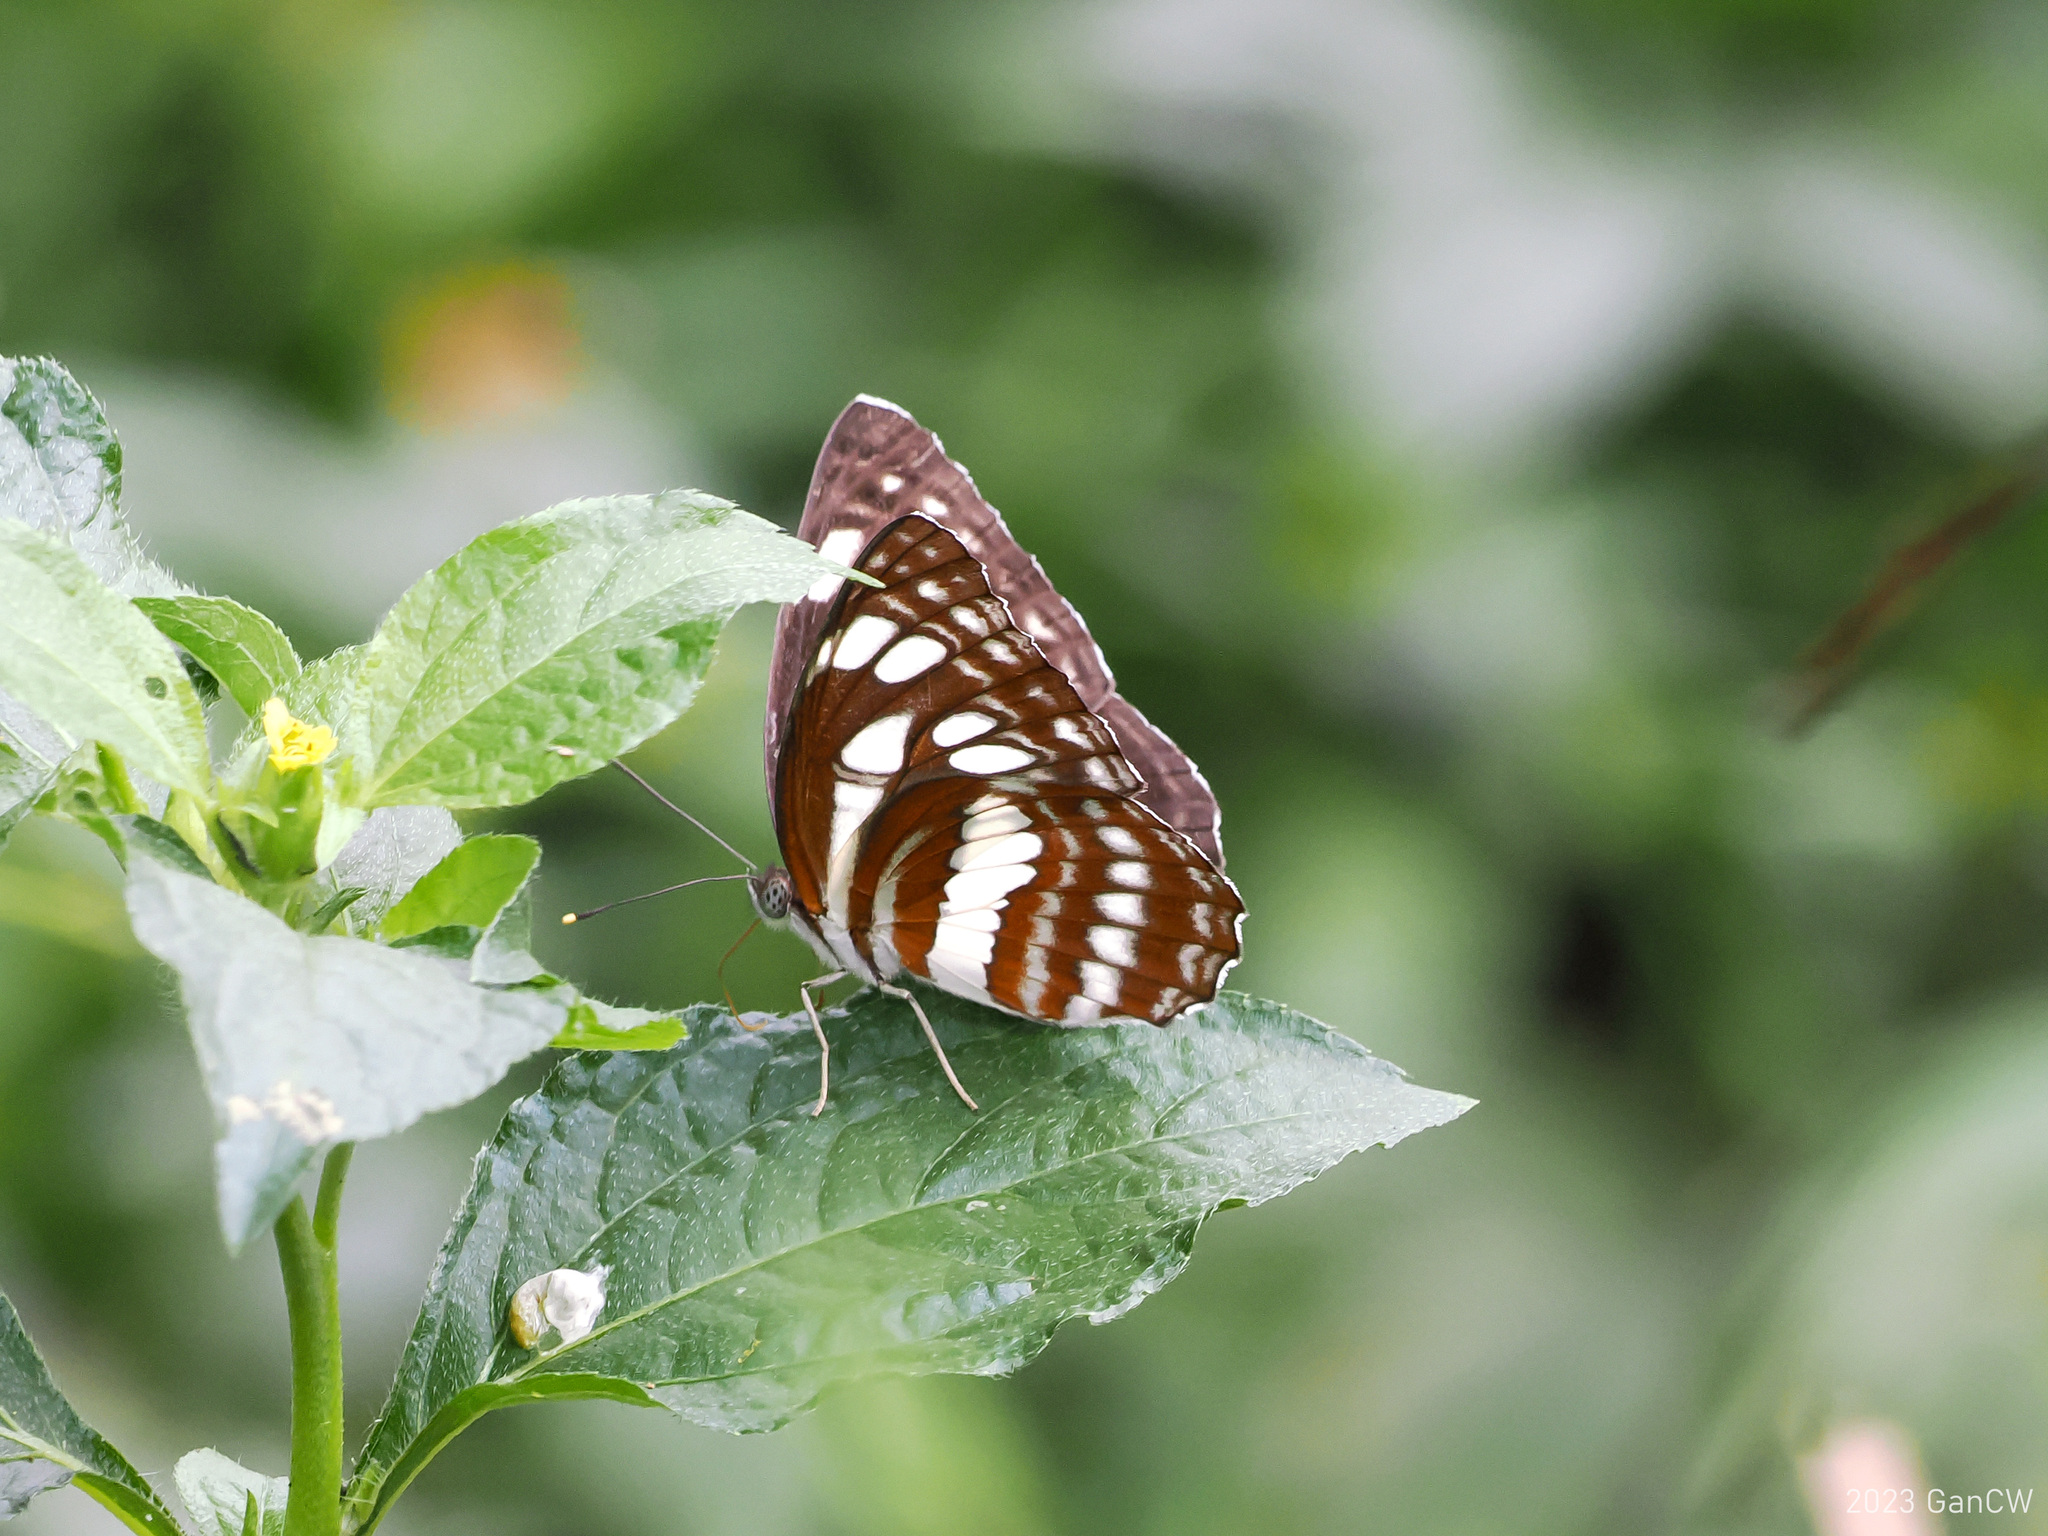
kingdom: Animalia
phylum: Arthropoda
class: Insecta
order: Lepidoptera
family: Nymphalidae
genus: Neptis
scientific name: Neptis ida
